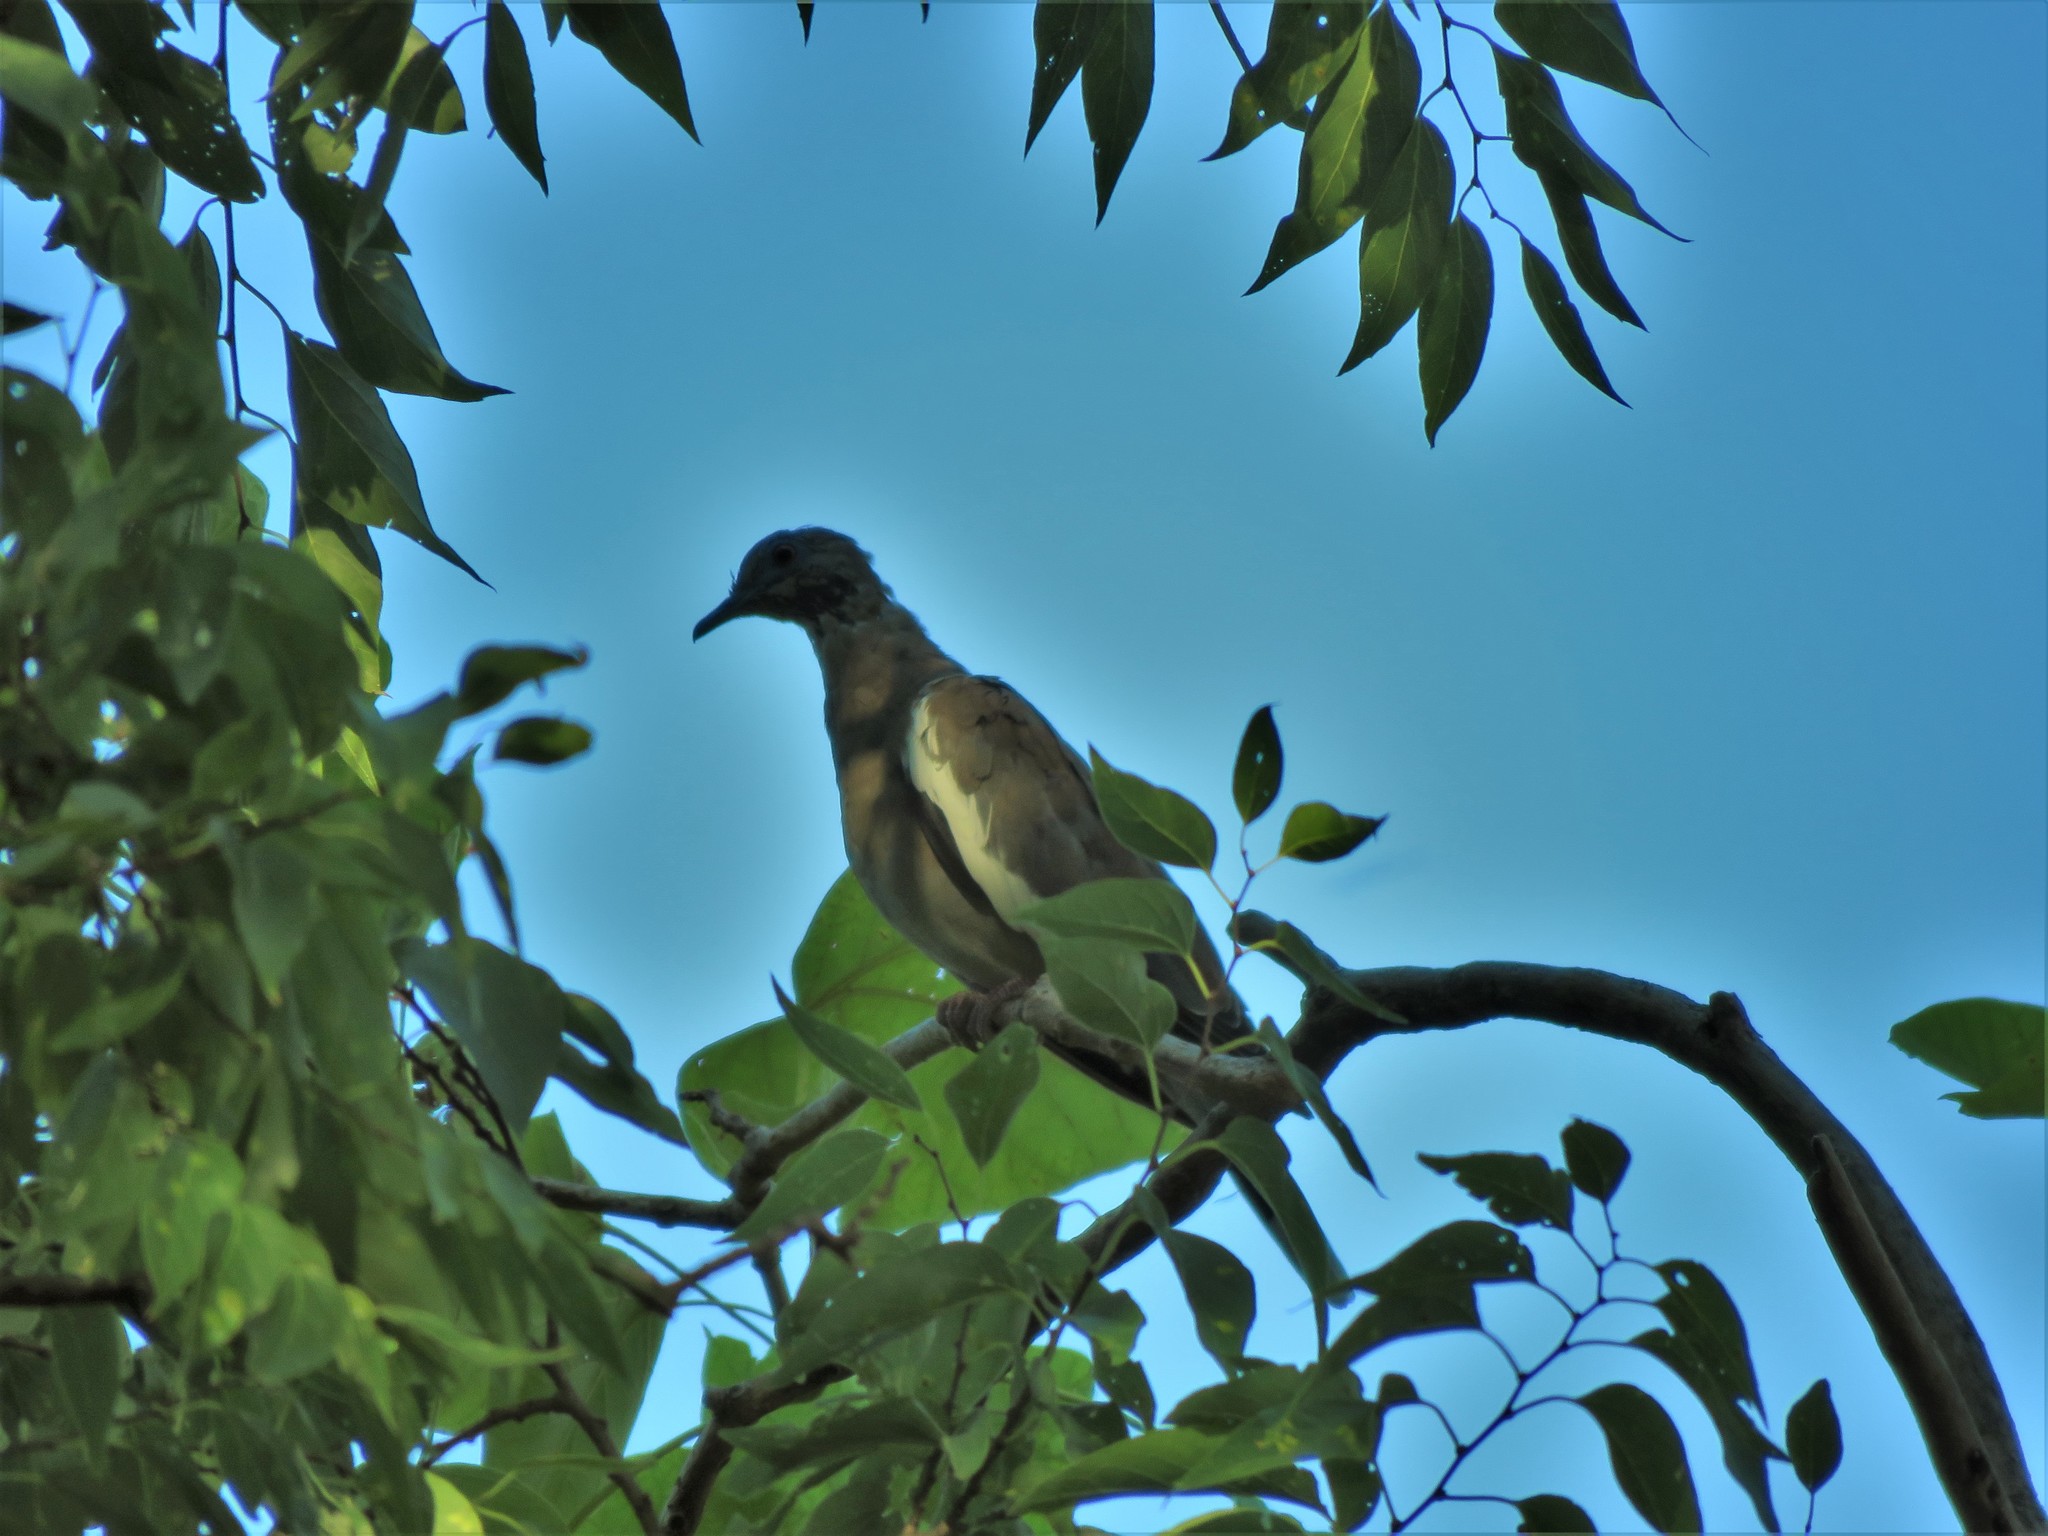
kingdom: Animalia
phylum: Chordata
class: Aves
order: Columbiformes
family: Columbidae
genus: Zenaida
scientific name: Zenaida asiatica
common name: White-winged dove
